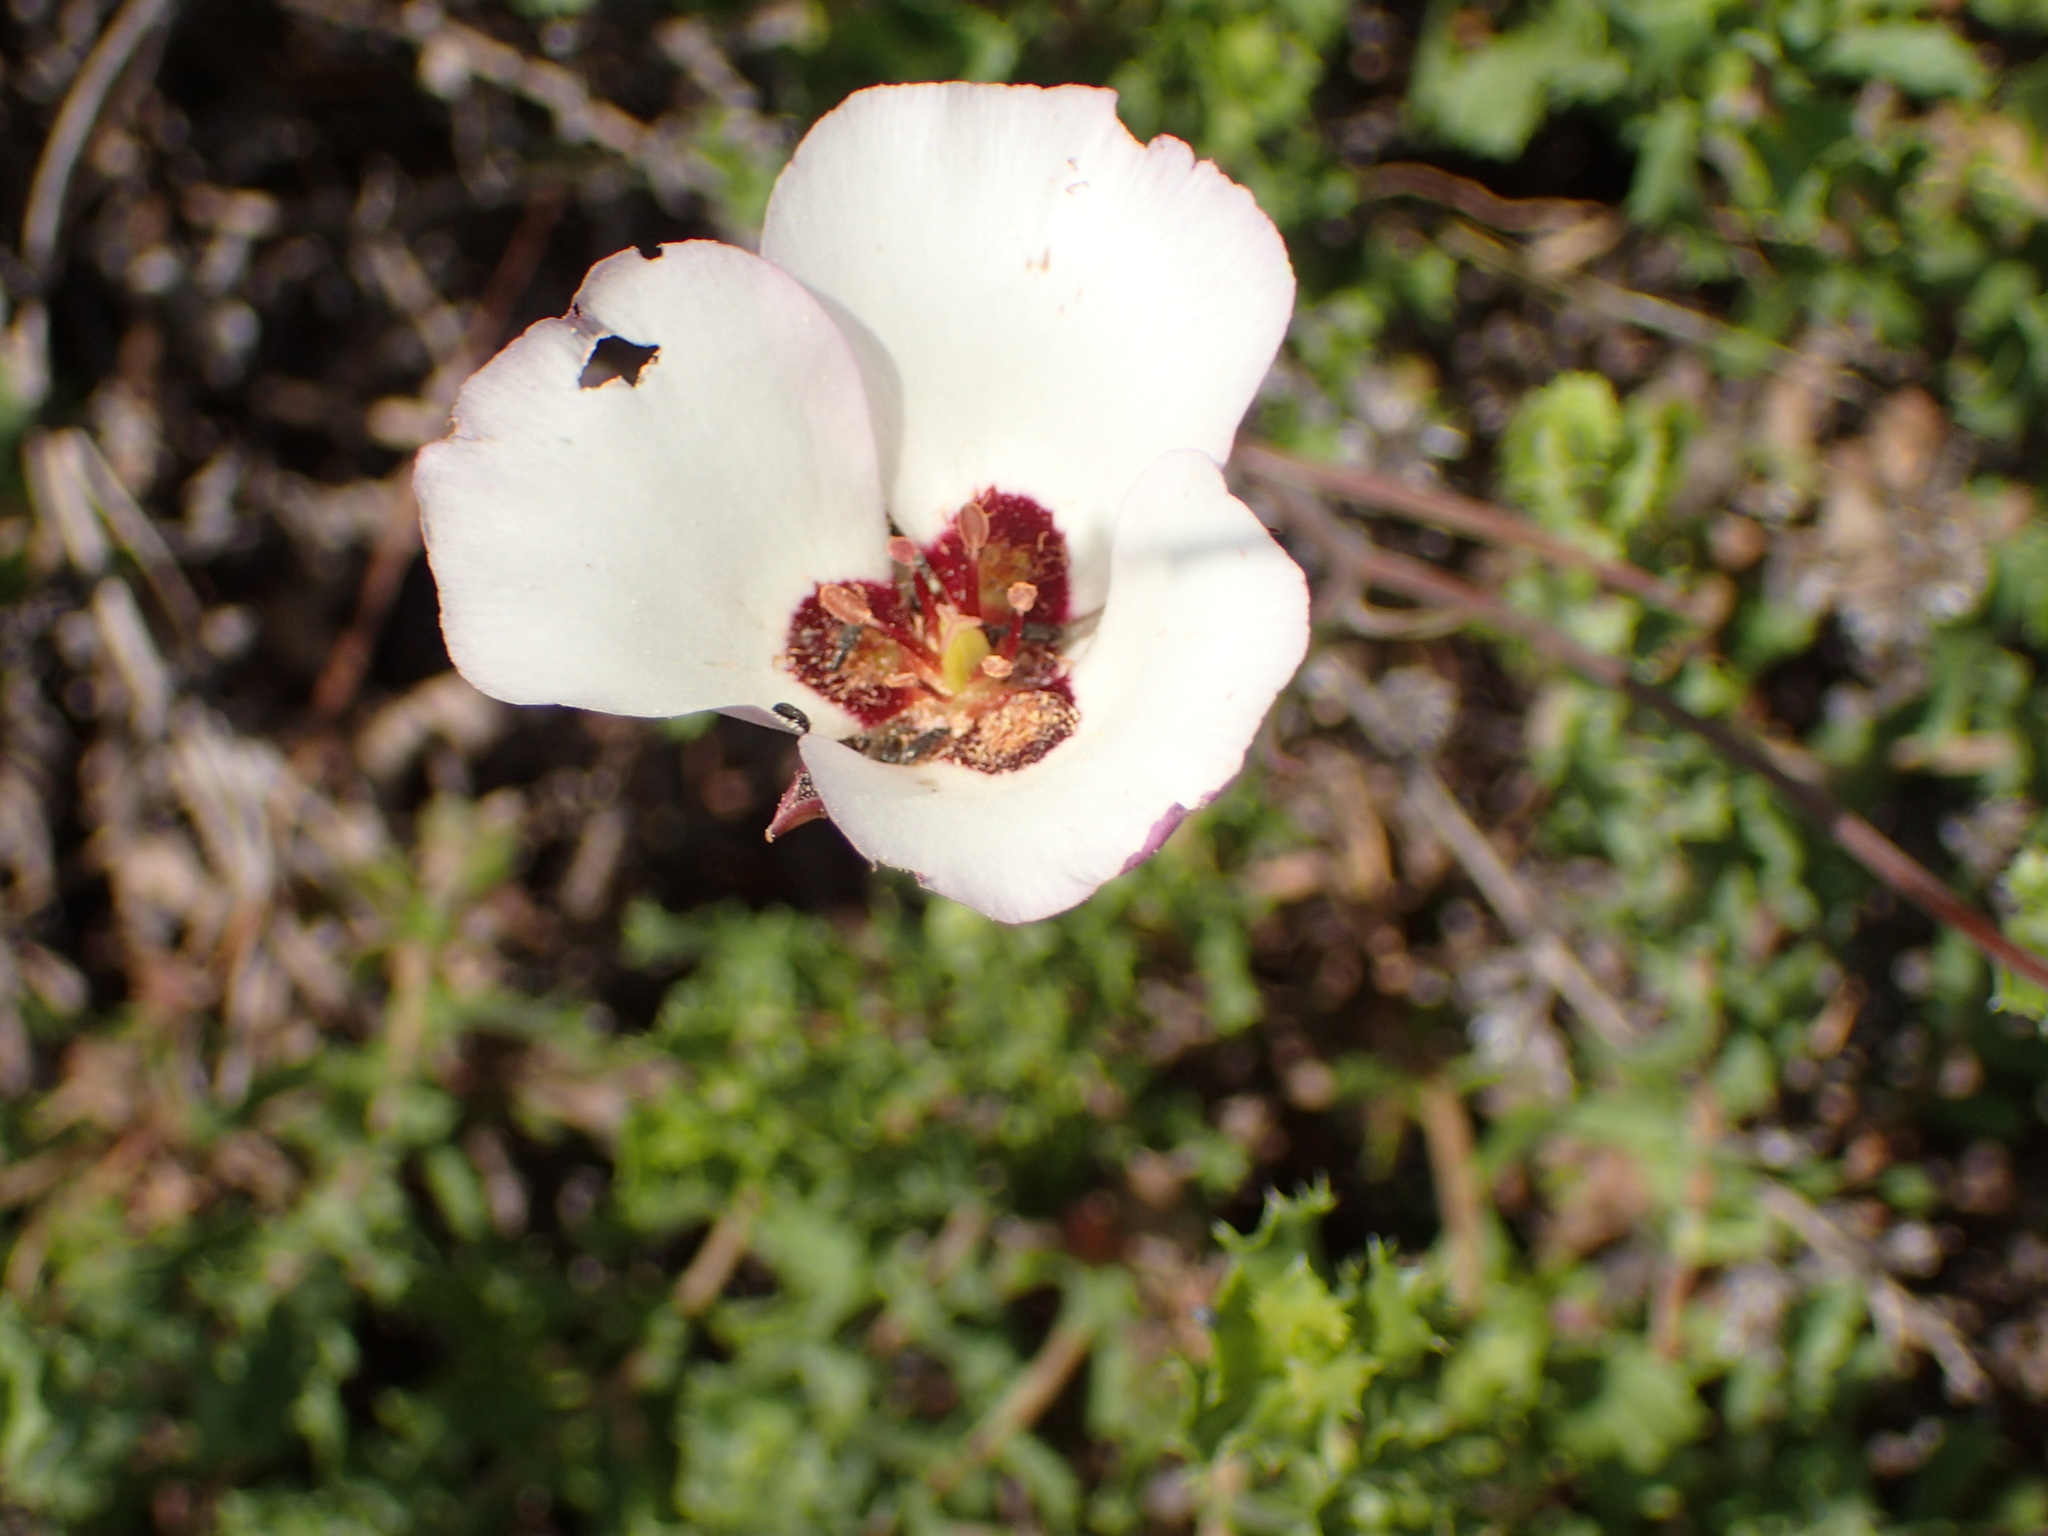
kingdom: Plantae
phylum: Tracheophyta
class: Liliopsida
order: Liliales
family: Liliaceae
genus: Calochortus
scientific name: Calochortus catalinae
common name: Catalina mariposa-lily
